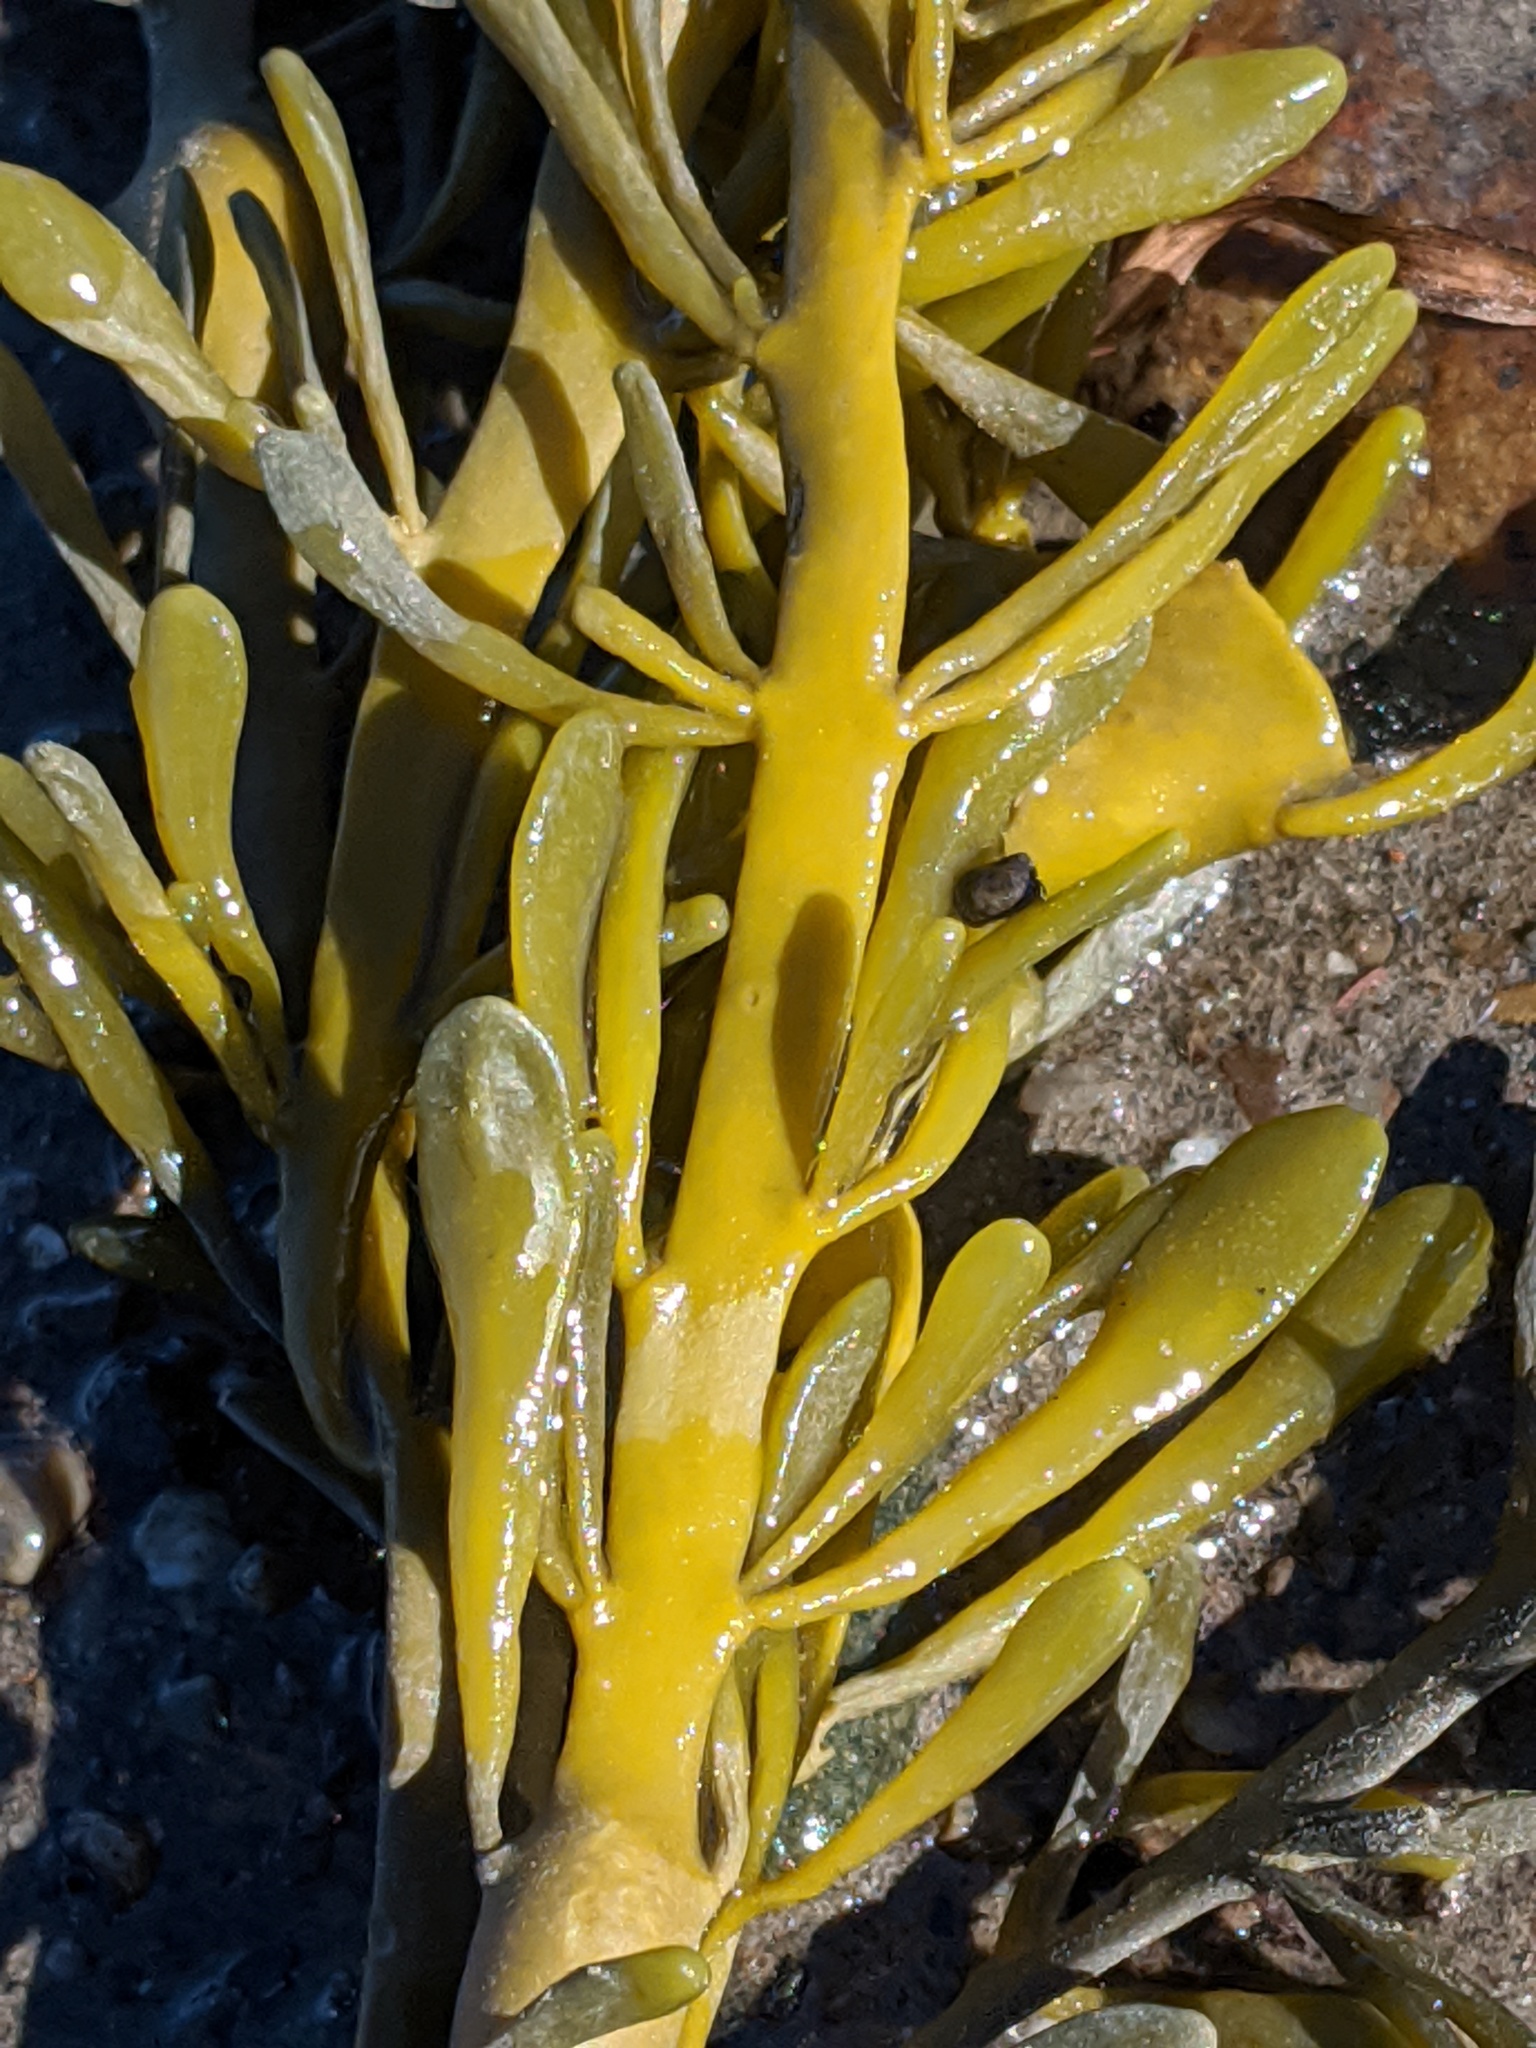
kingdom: Chromista
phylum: Ochrophyta
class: Phaeophyceae
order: Fucales
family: Fucaceae
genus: Ascophyllum
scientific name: Ascophyllum nodosum
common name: Knotted wrack
